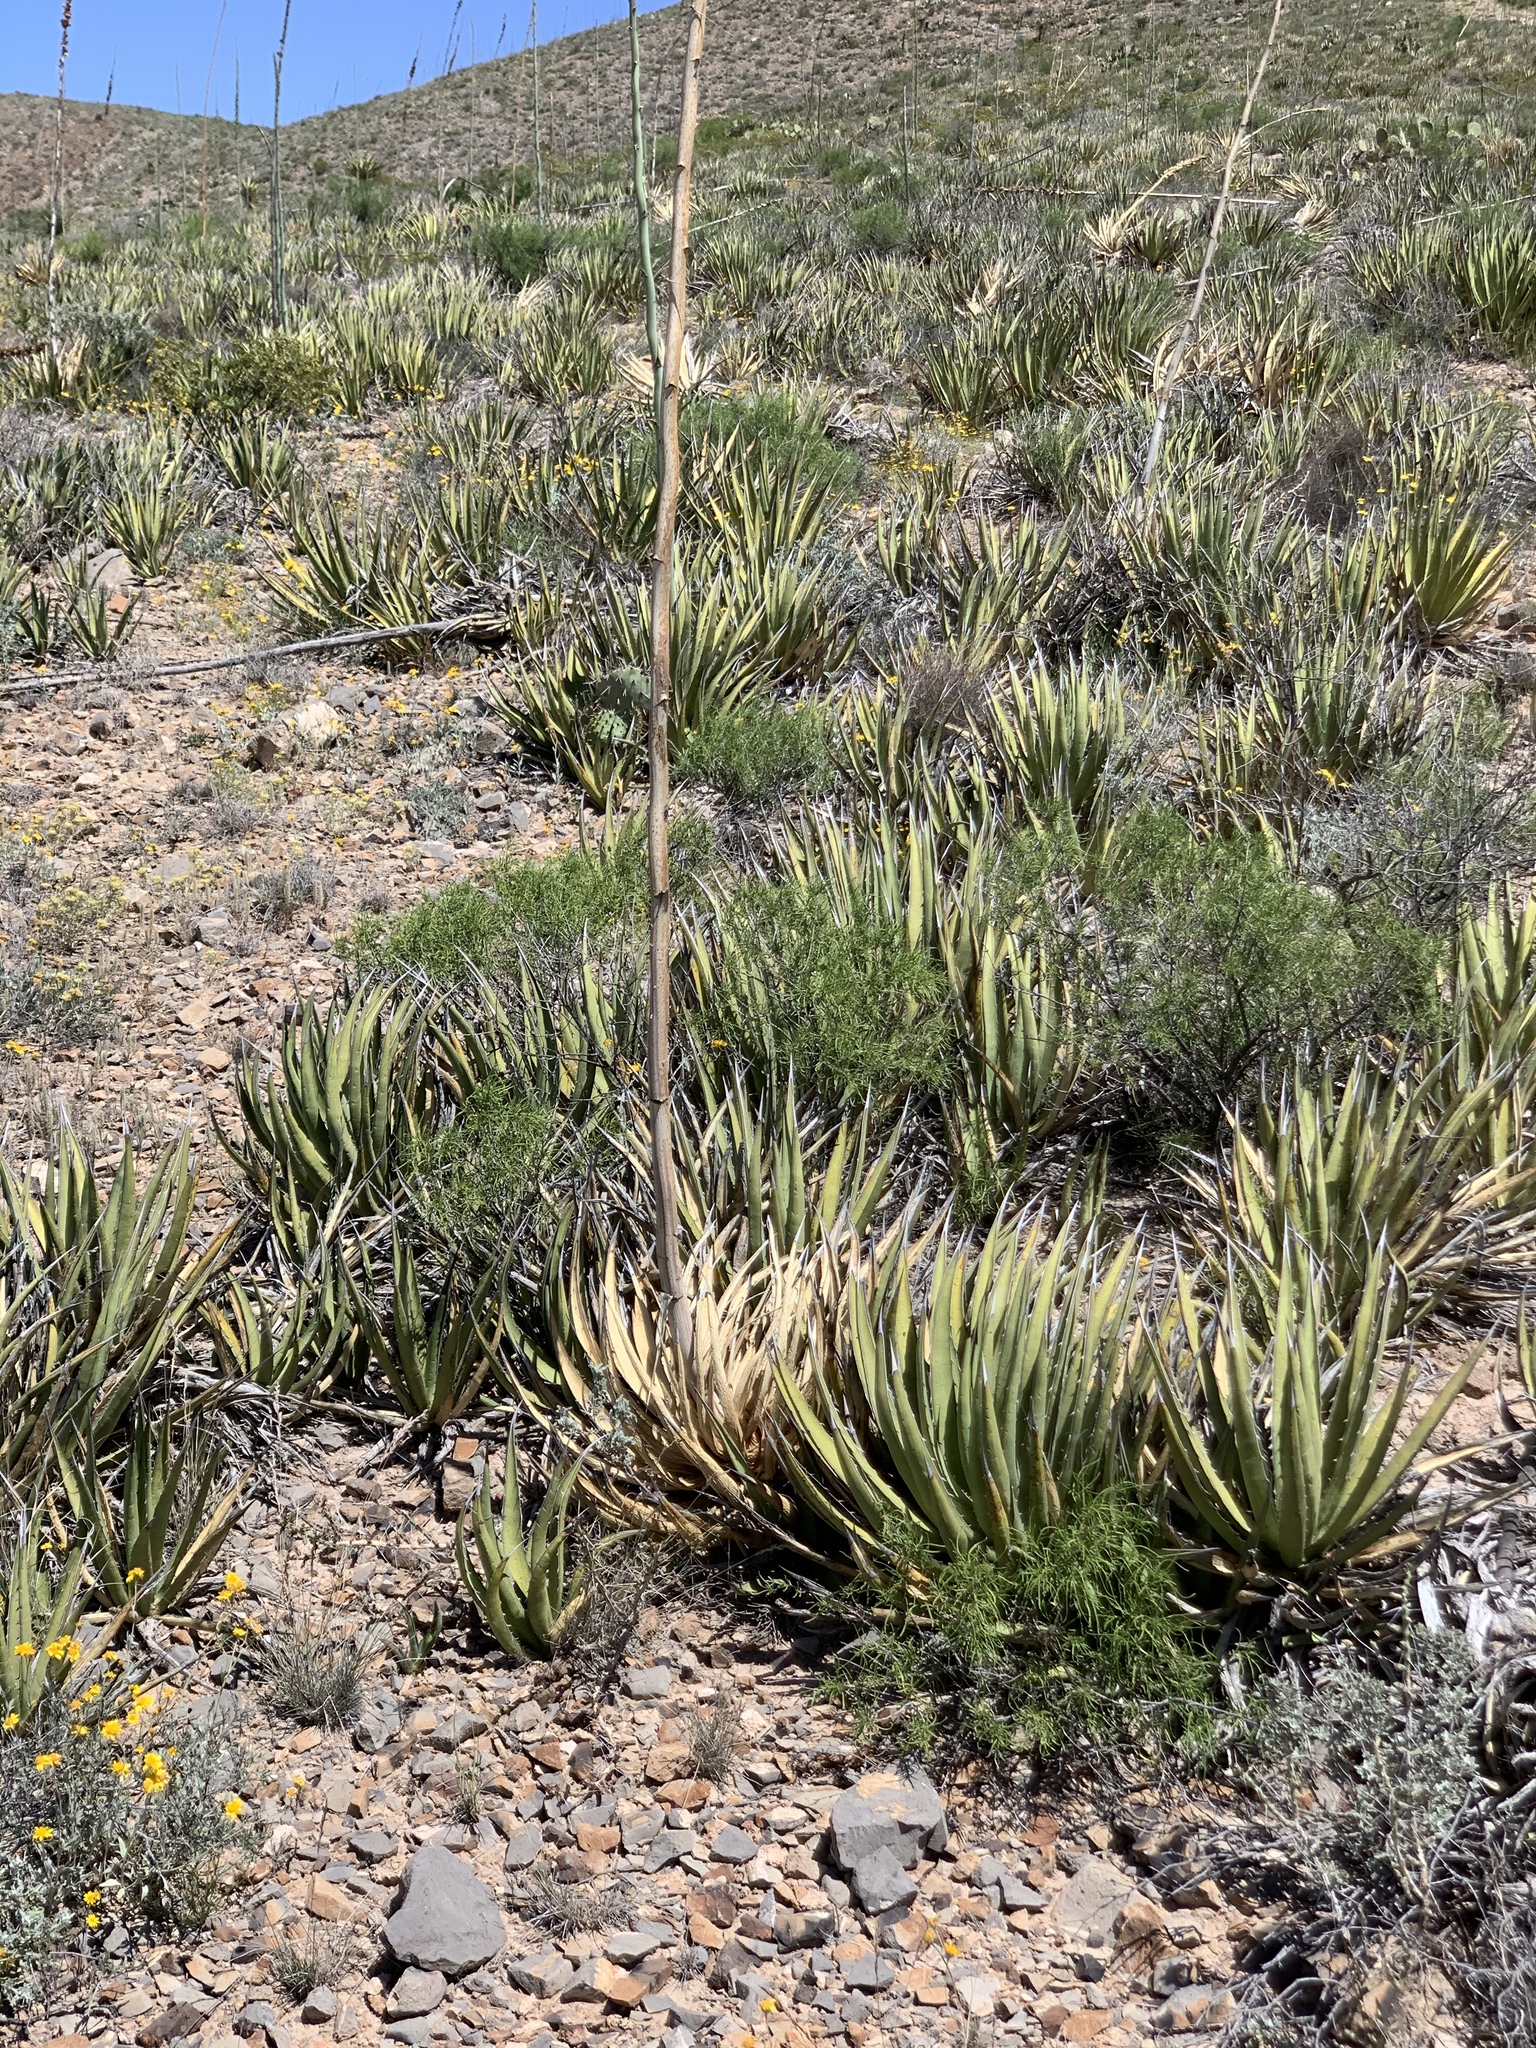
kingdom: Plantae
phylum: Tracheophyta
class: Liliopsida
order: Asparagales
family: Asparagaceae
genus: Agave
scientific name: Agave lechuguilla
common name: Lecheguilla agave
